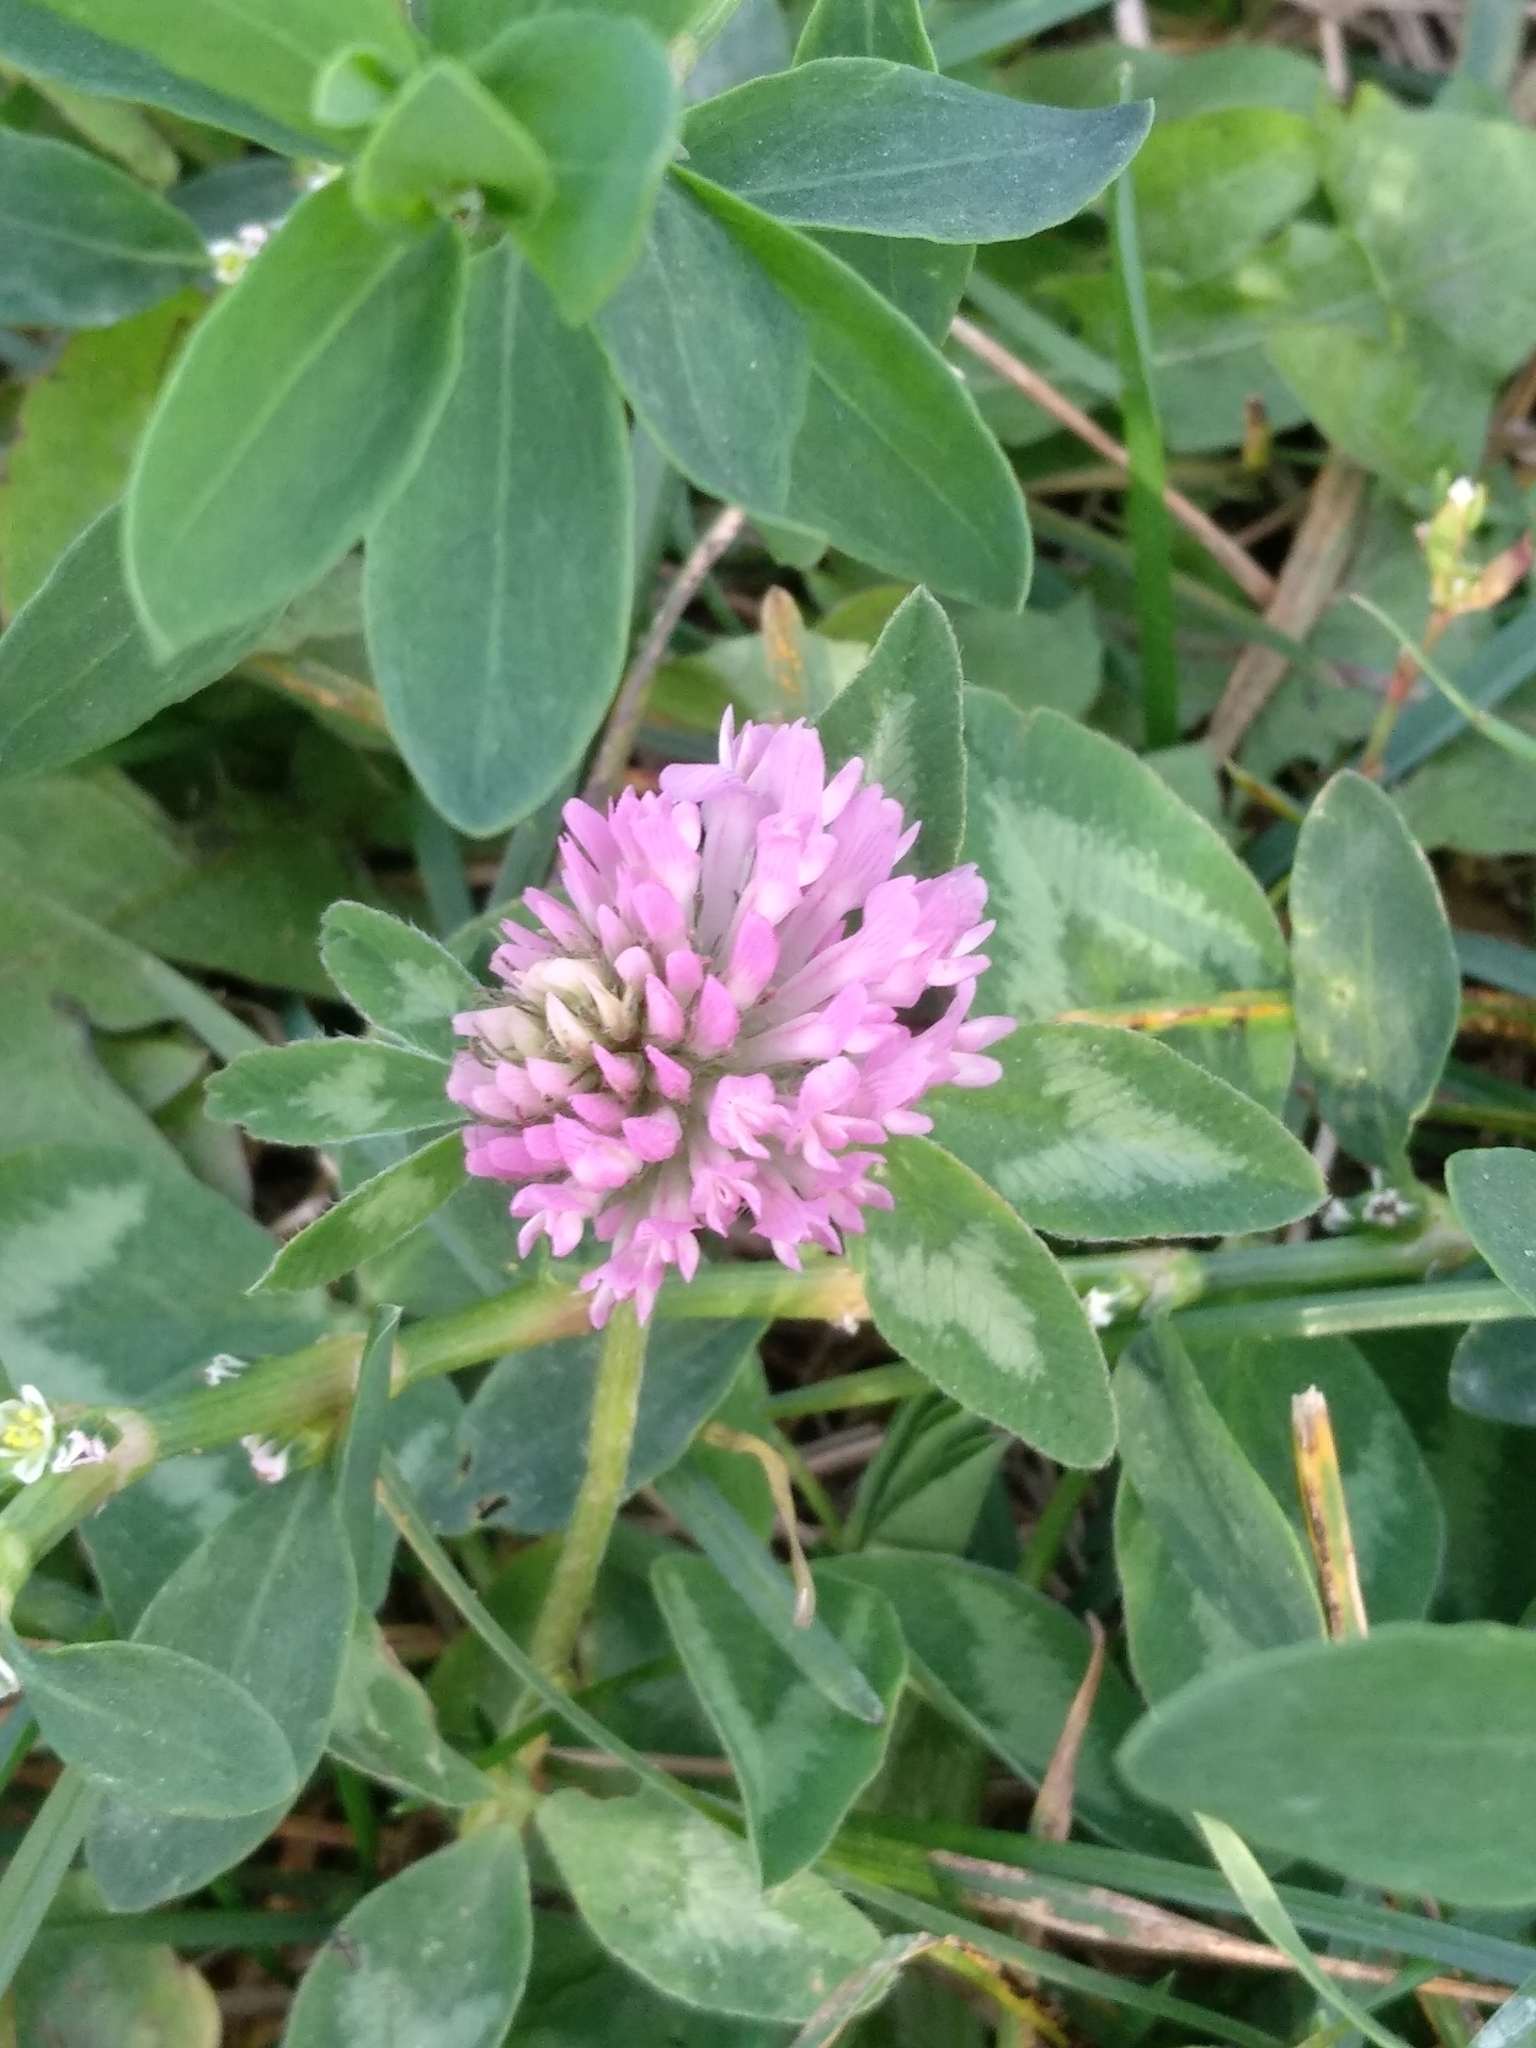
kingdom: Plantae
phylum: Tracheophyta
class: Magnoliopsida
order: Fabales
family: Fabaceae
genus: Trifolium
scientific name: Trifolium pratense
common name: Red clover
